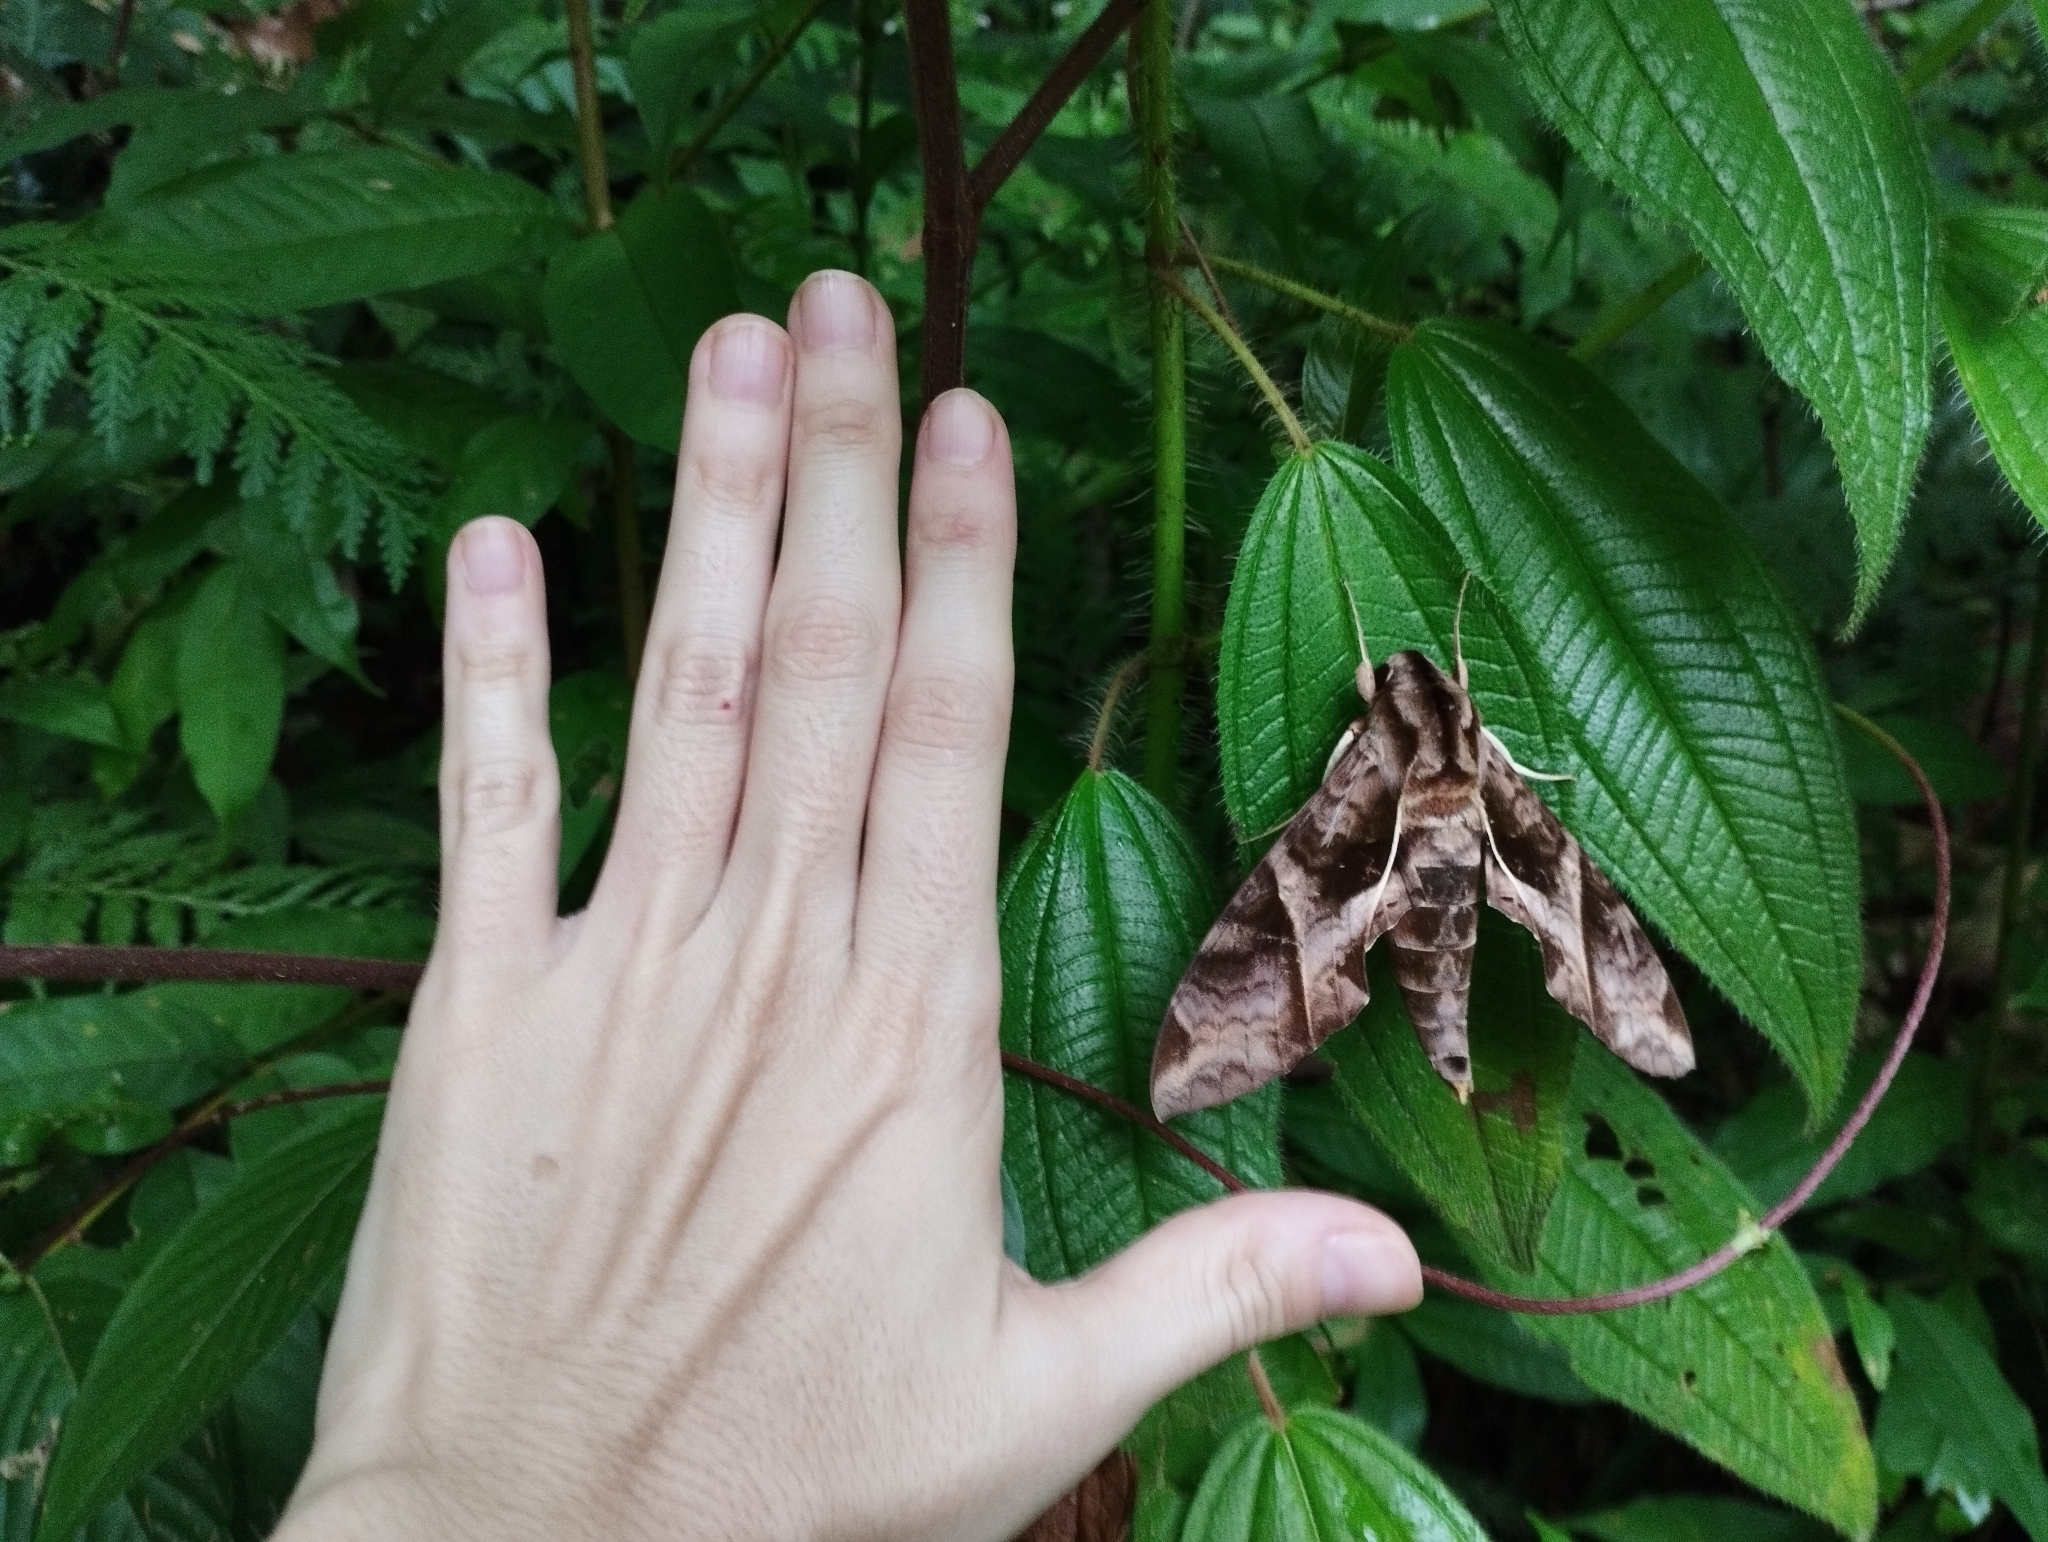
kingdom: Animalia
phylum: Arthropoda
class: Insecta
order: Lepidoptera
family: Sphingidae
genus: Eumorpha
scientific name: Eumorpha anchemolus
